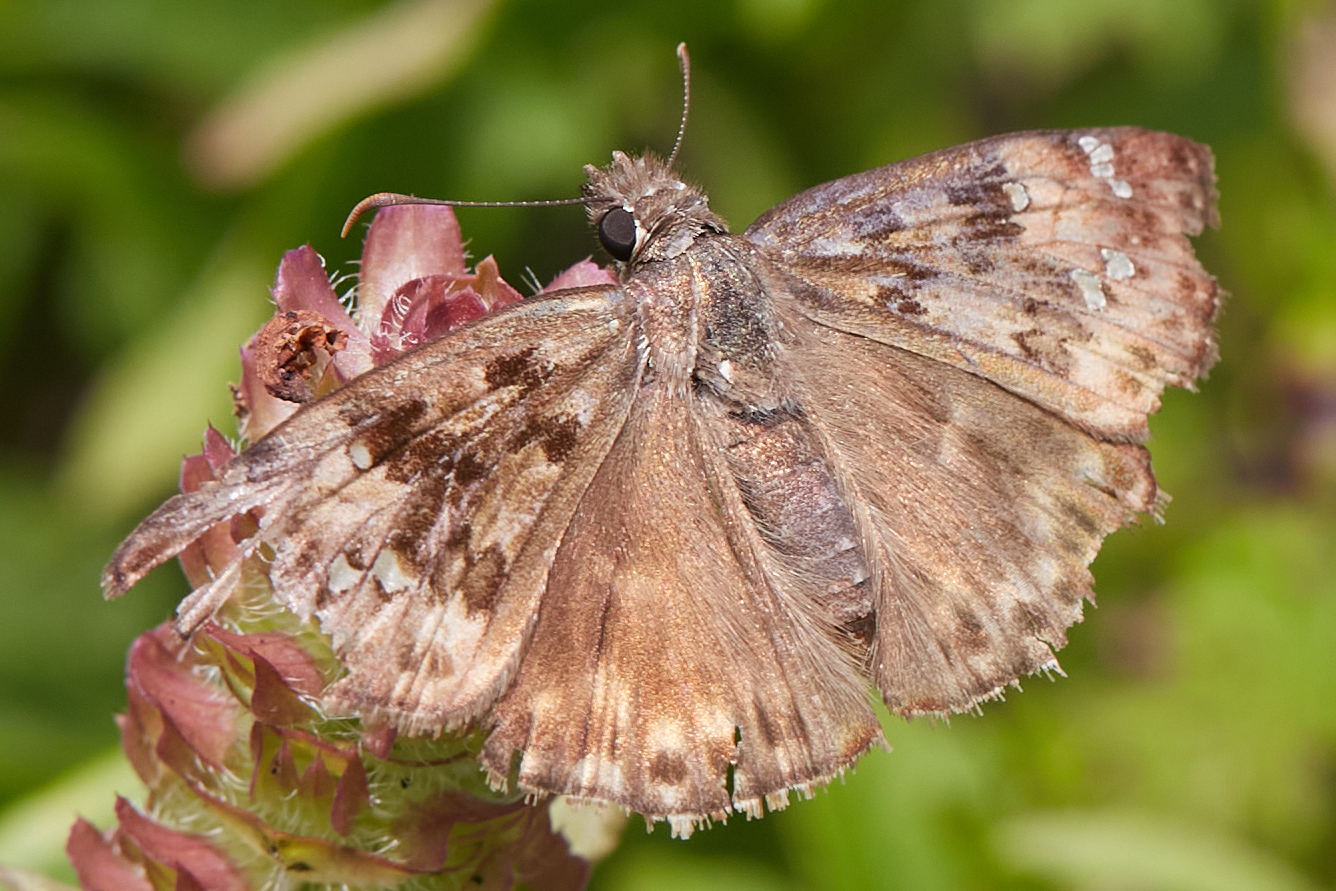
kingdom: Animalia
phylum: Arthropoda
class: Insecta
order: Lepidoptera
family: Hesperiidae
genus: Erynnis
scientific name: Erynnis horatius
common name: Horace's duskywing
